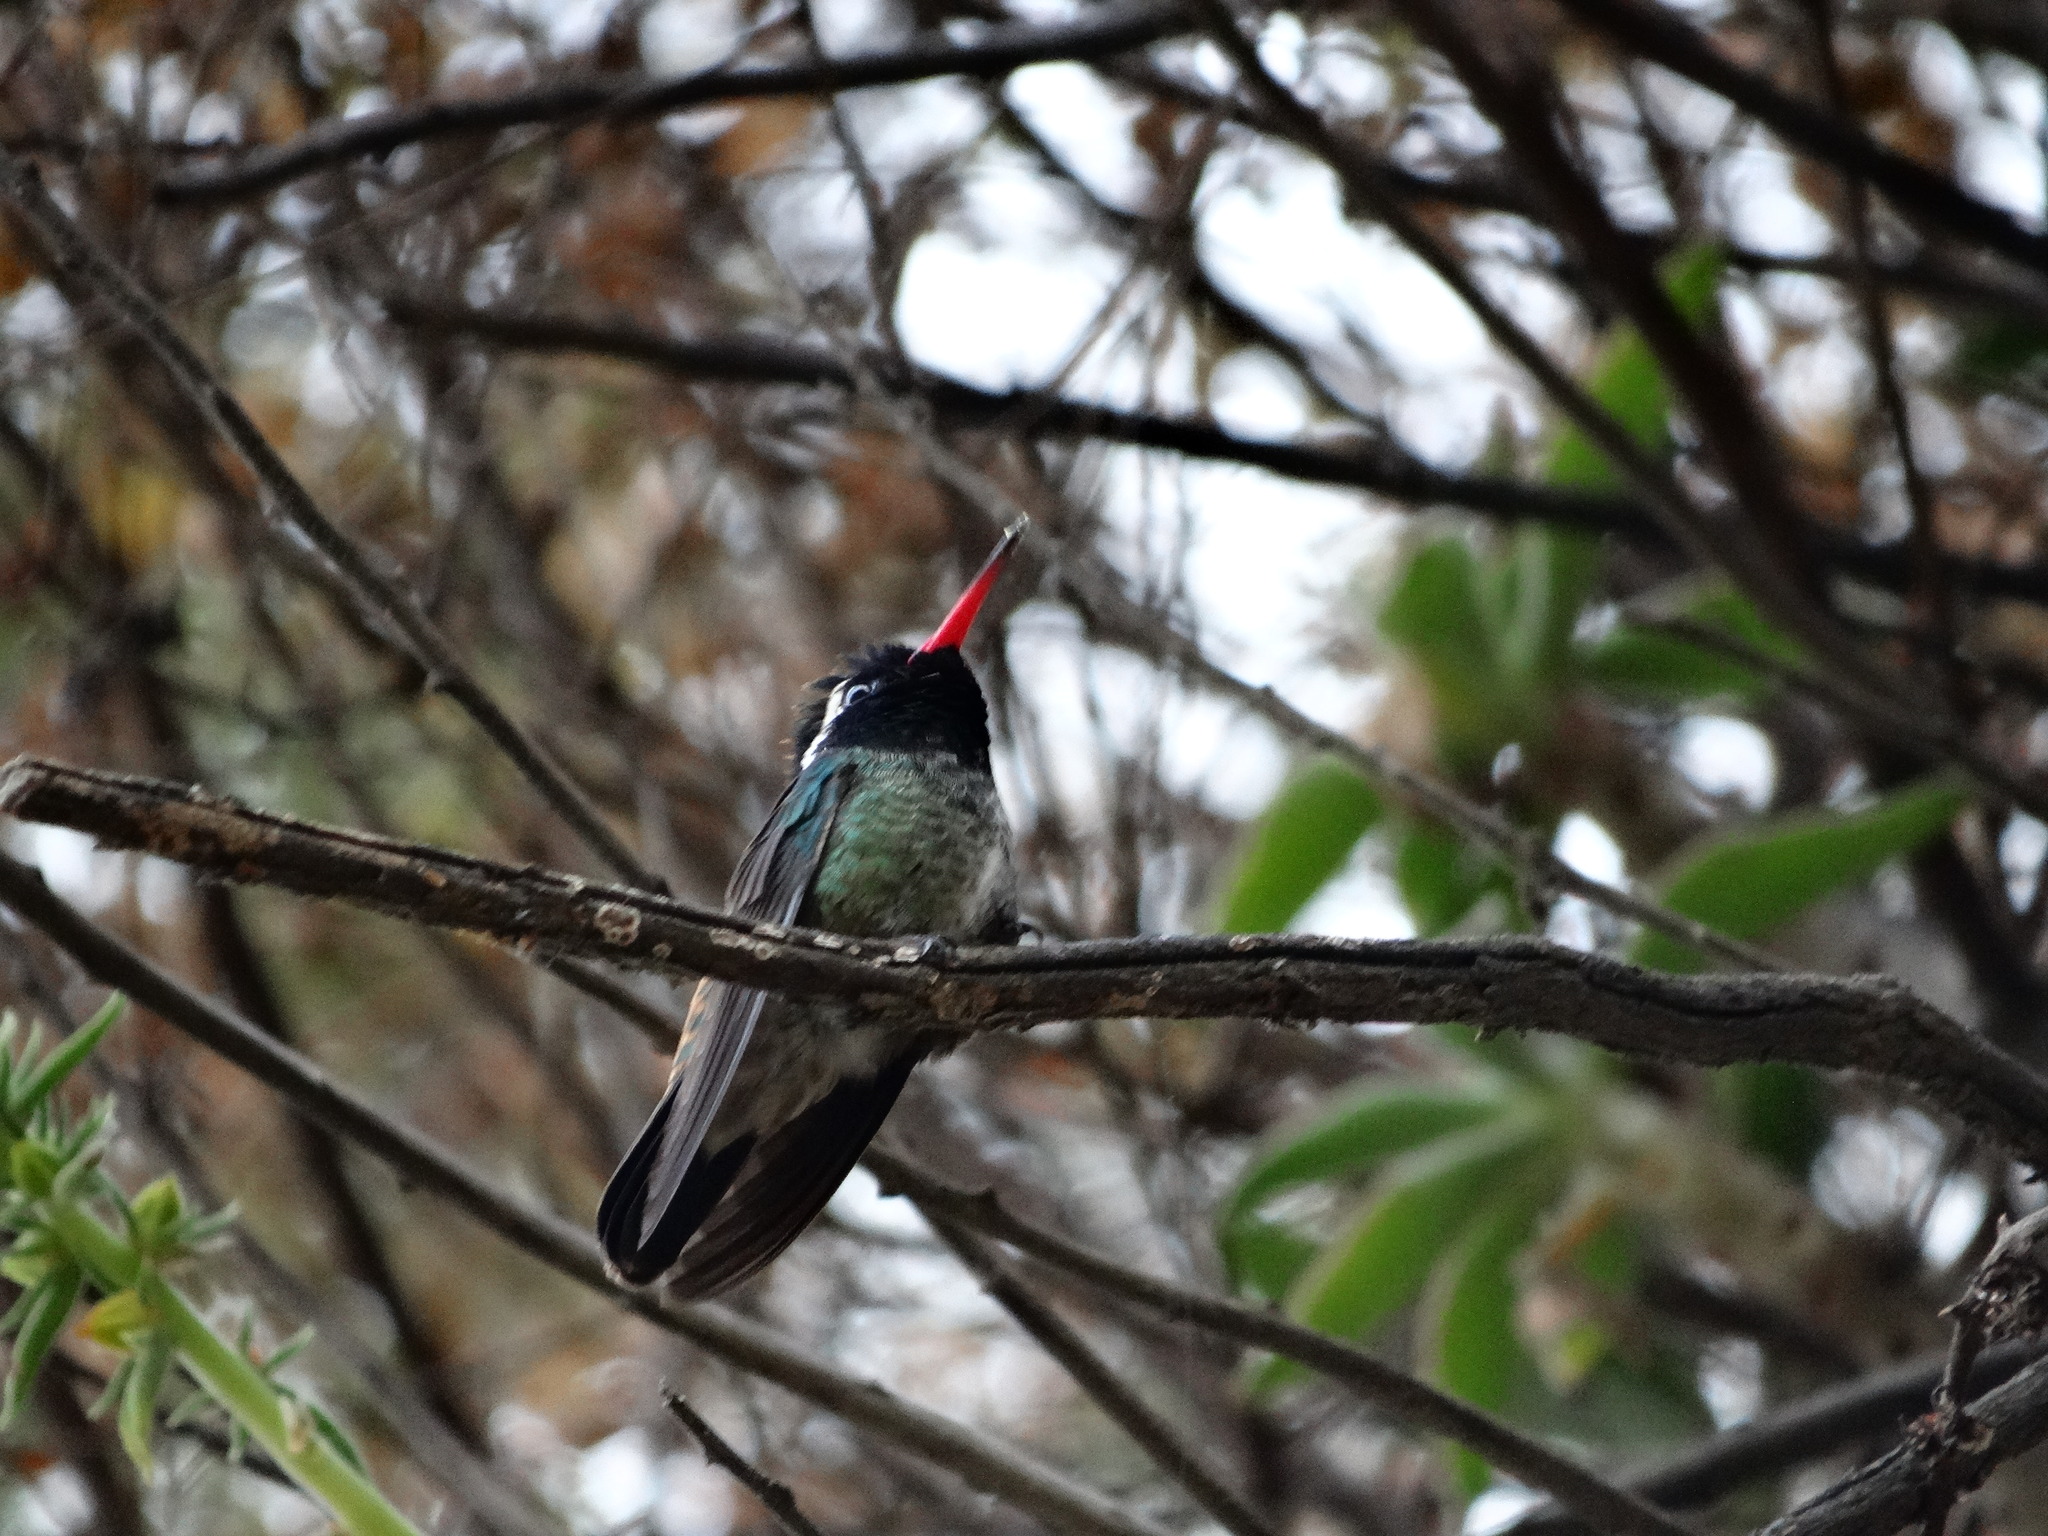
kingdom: Animalia
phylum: Chordata
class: Aves
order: Apodiformes
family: Trochilidae
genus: Basilinna
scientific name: Basilinna leucotis
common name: White-eared hummingbird
